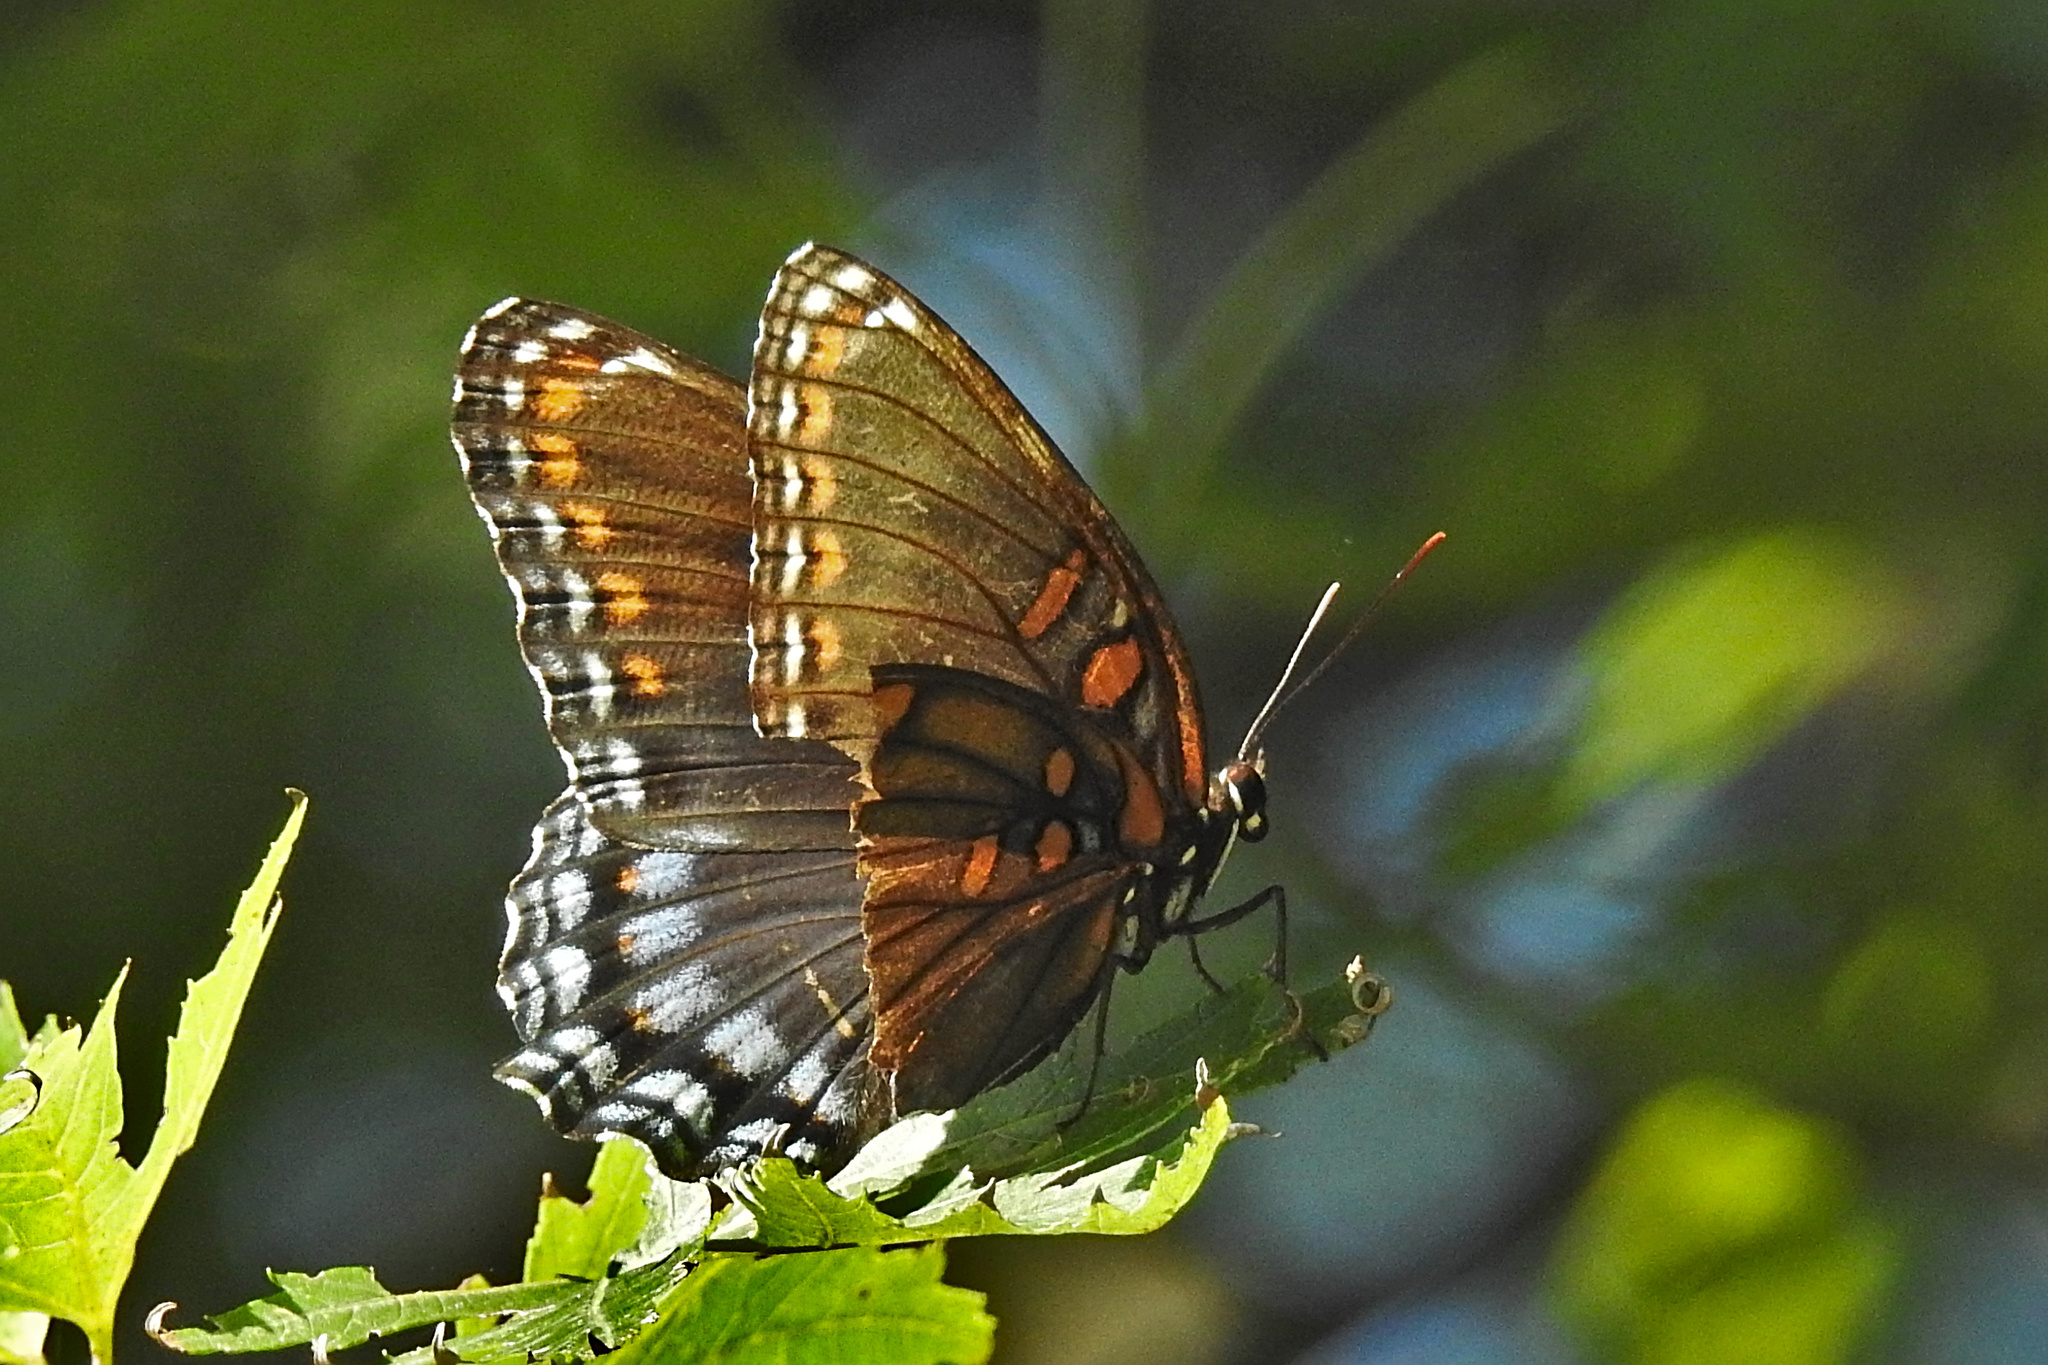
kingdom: Animalia
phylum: Arthropoda
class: Insecta
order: Lepidoptera
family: Nymphalidae
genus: Limenitis
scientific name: Limenitis astyanax
